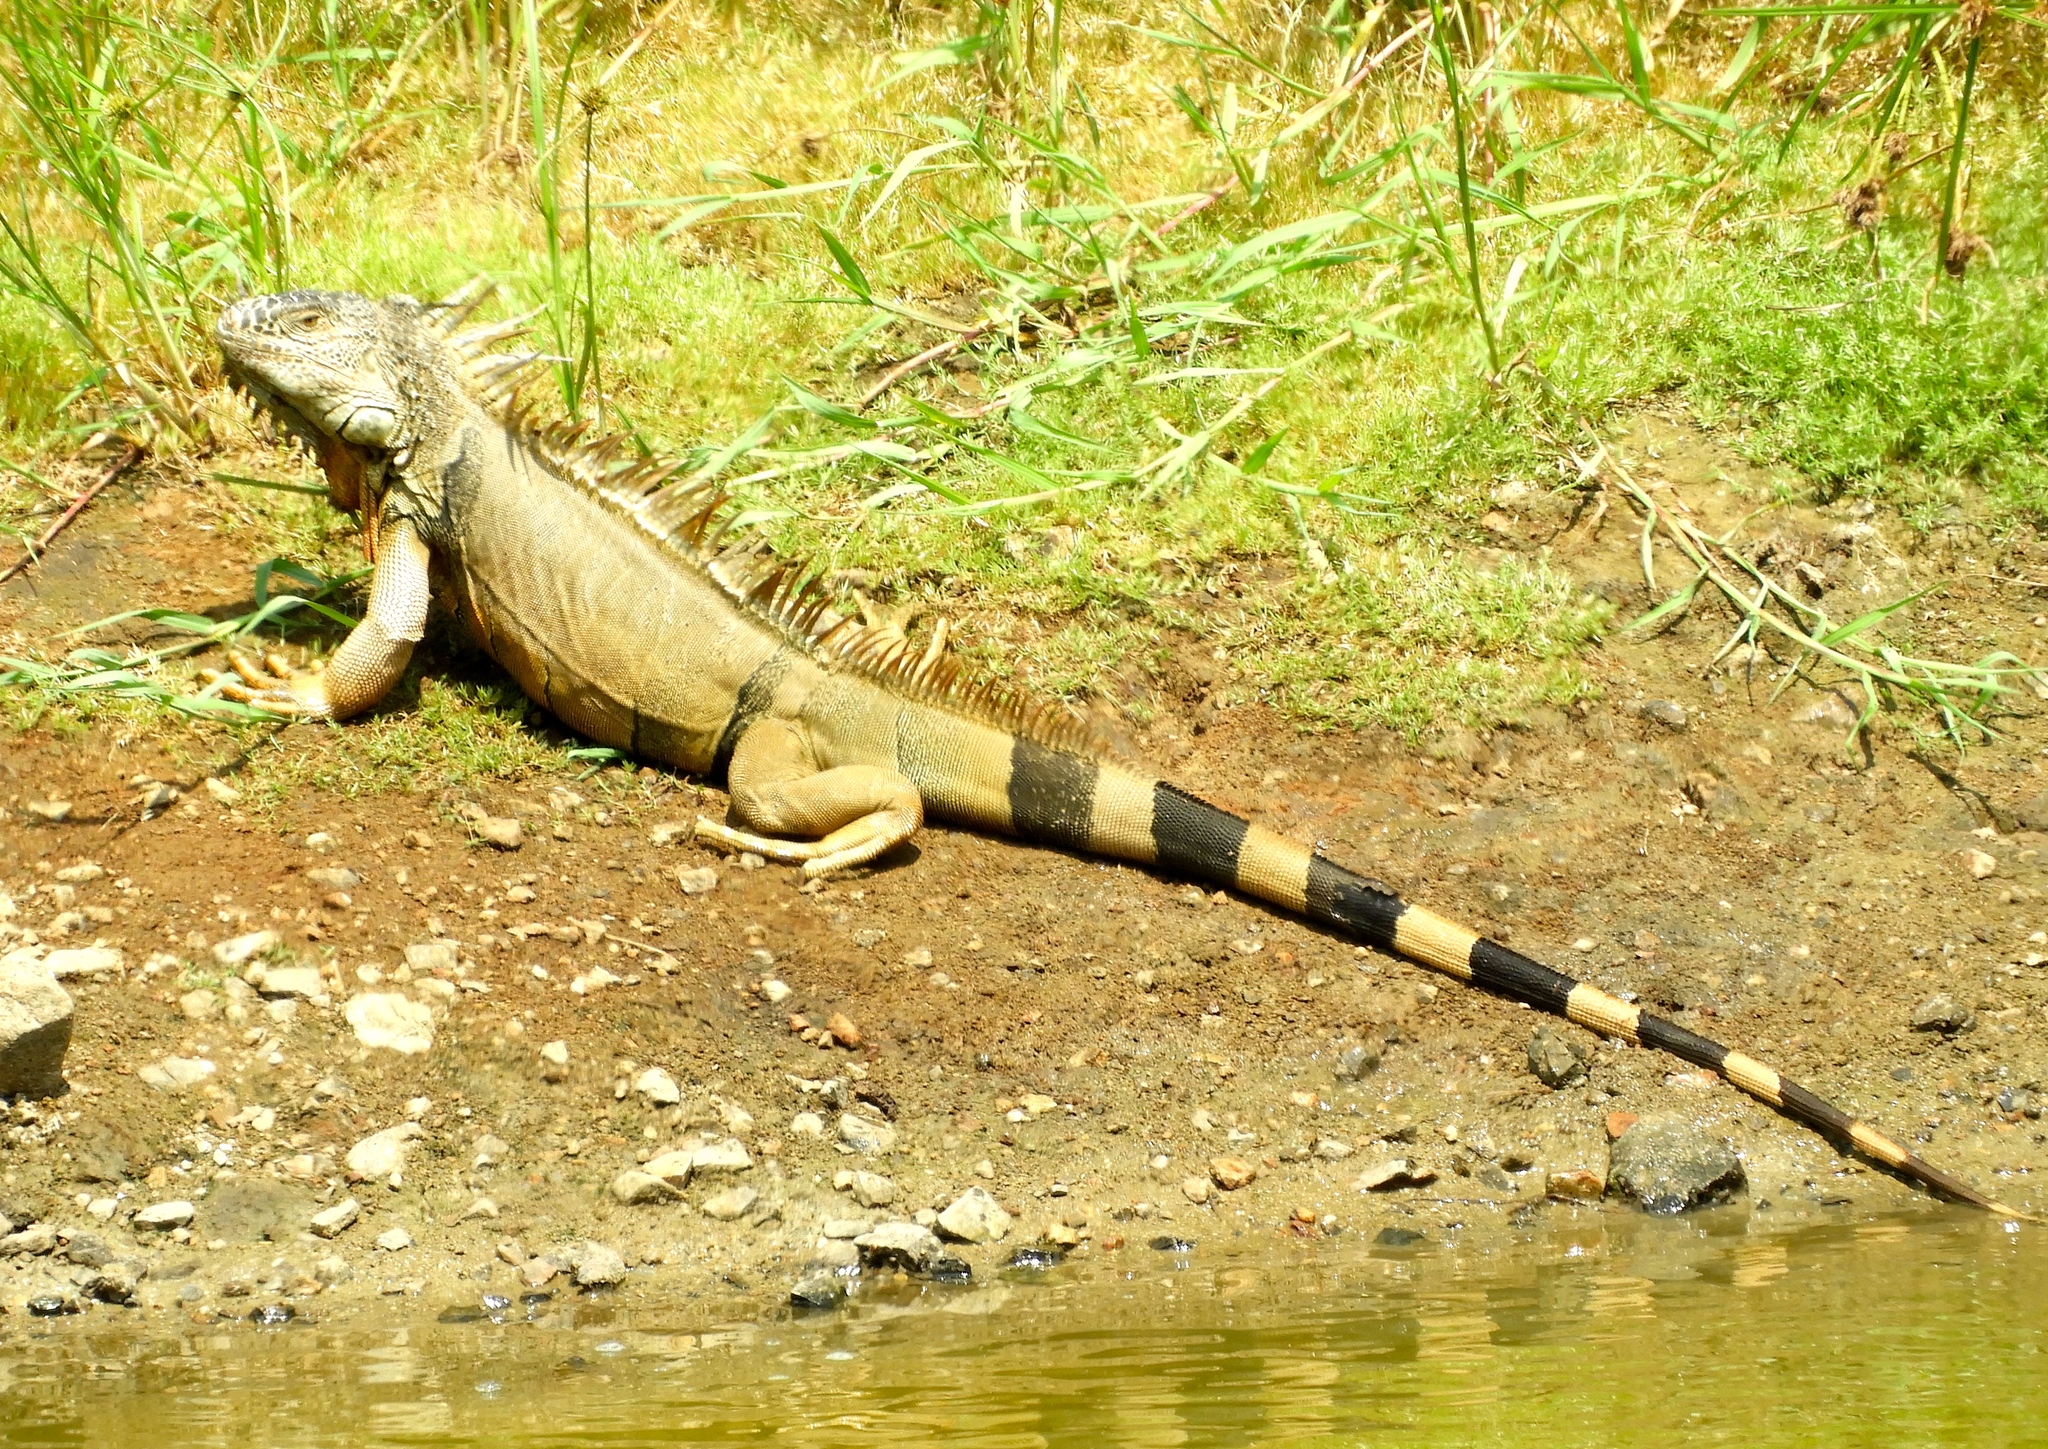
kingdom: Animalia
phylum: Chordata
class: Squamata
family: Iguanidae
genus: Iguana
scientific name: Iguana iguana
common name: Green iguana
